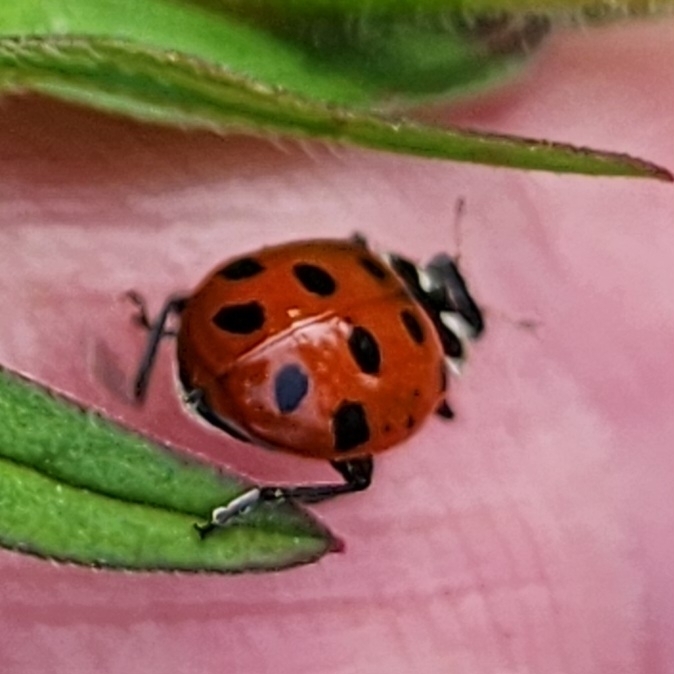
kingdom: Animalia
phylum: Arthropoda
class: Insecta
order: Coleoptera
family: Coccinellidae
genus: Hippodamia
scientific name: Hippodamia convergens
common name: Convergent lady beetle
